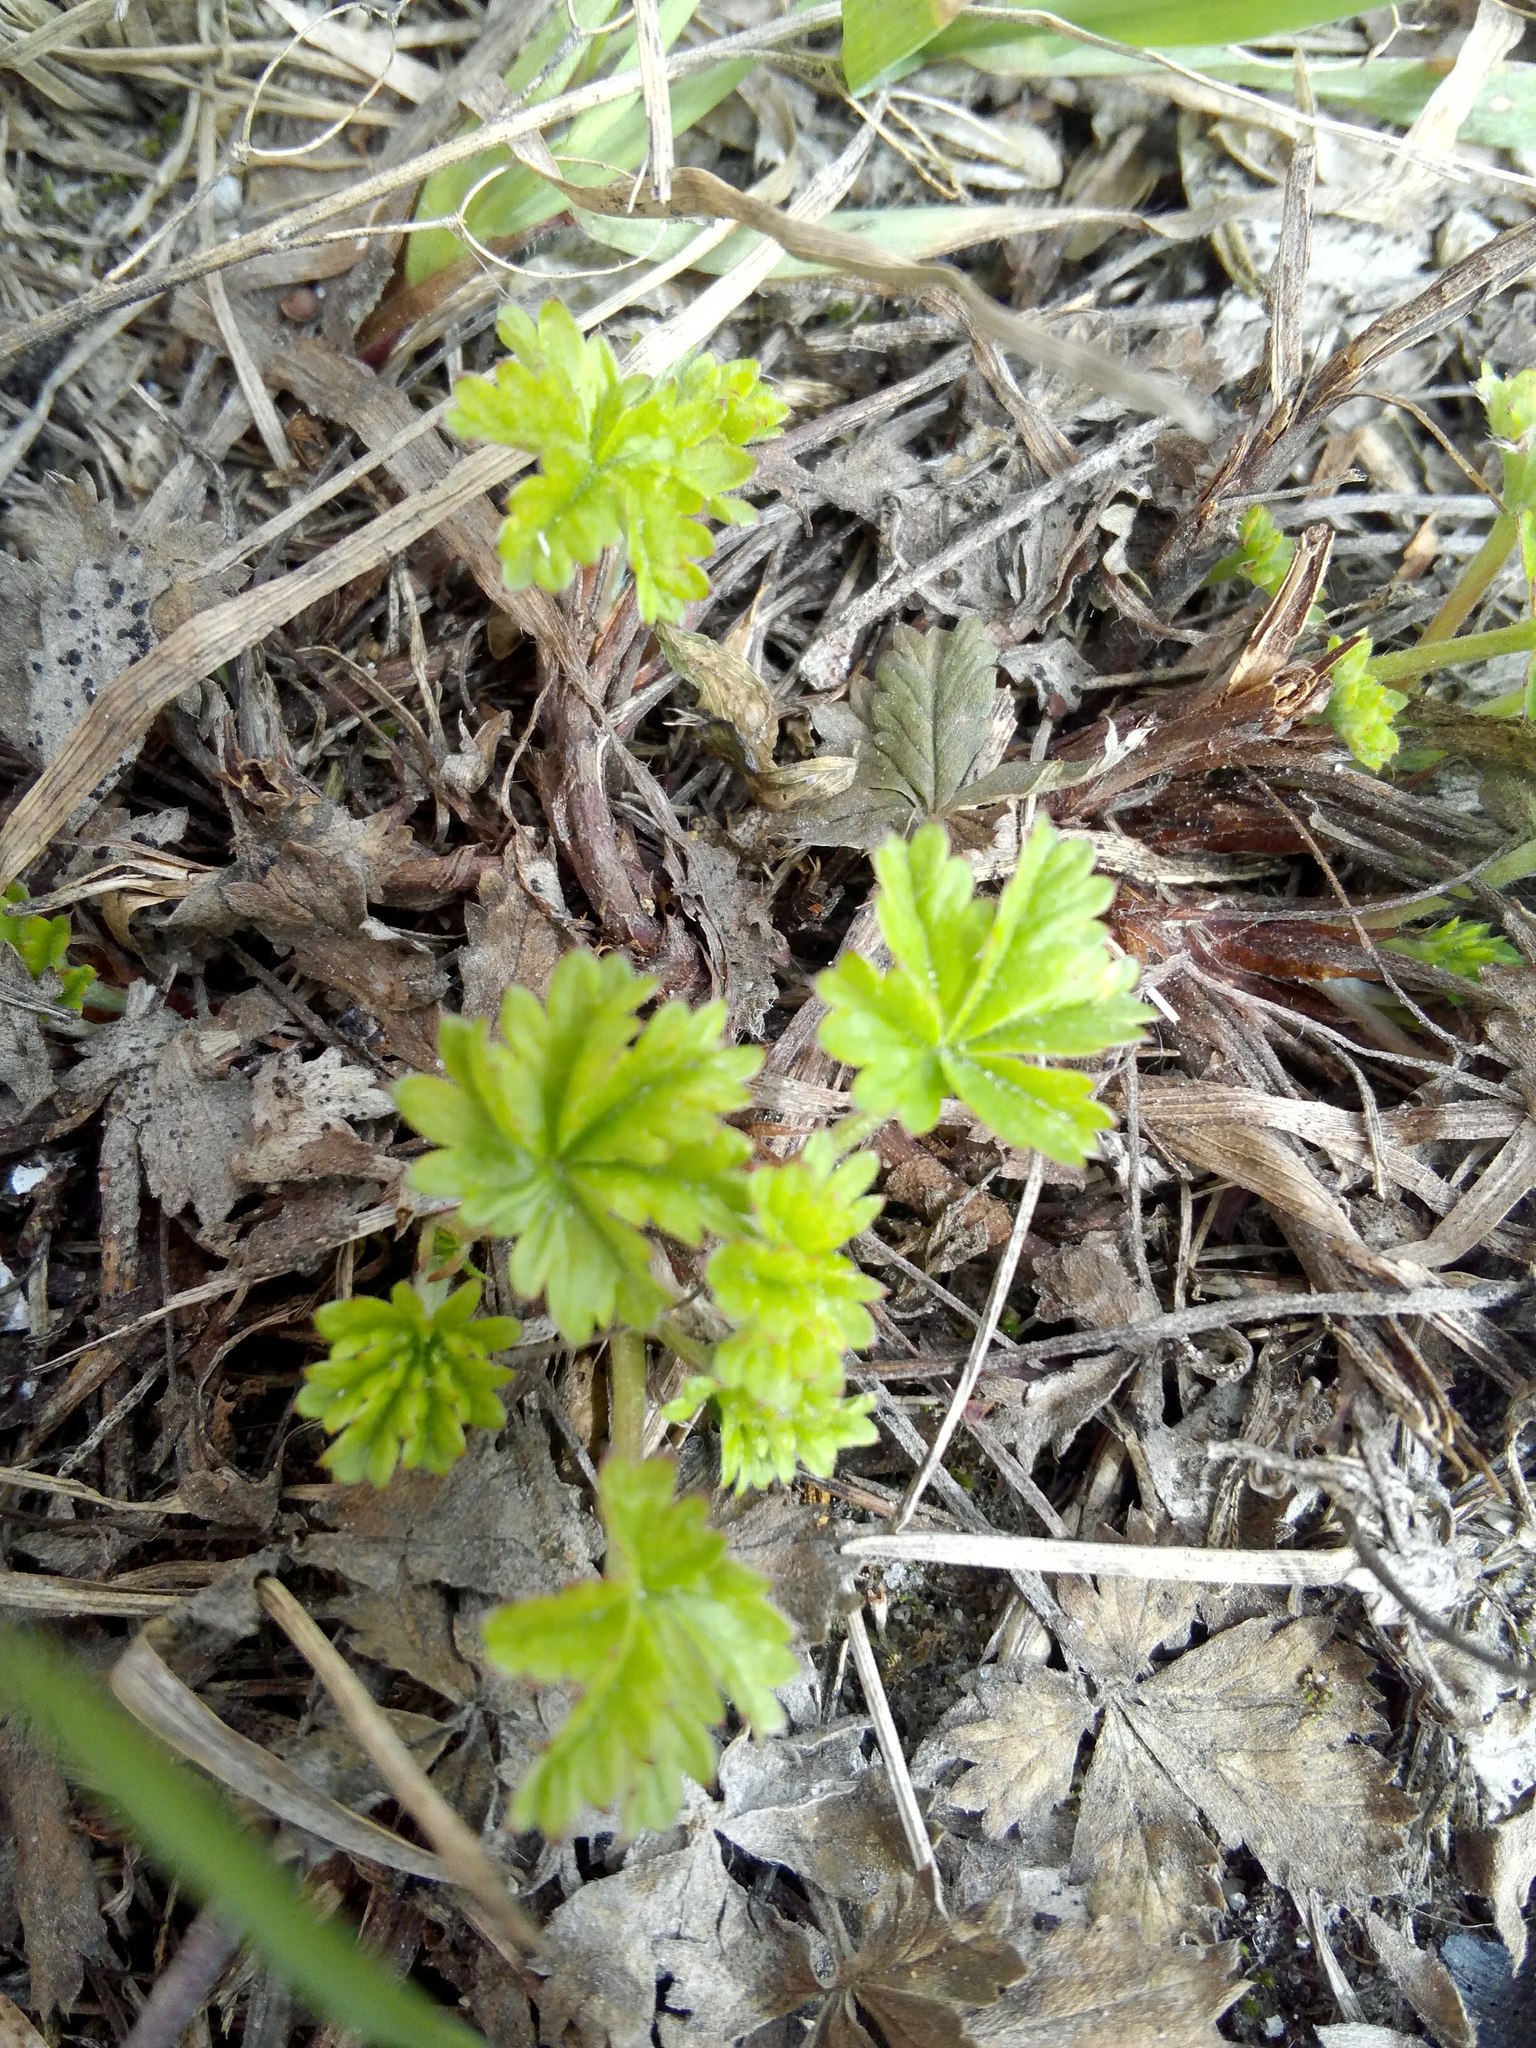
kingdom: Plantae
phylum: Tracheophyta
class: Magnoliopsida
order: Rosales
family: Rosaceae
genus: Potentilla
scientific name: Potentilla argentea
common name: Hoary cinquefoil
